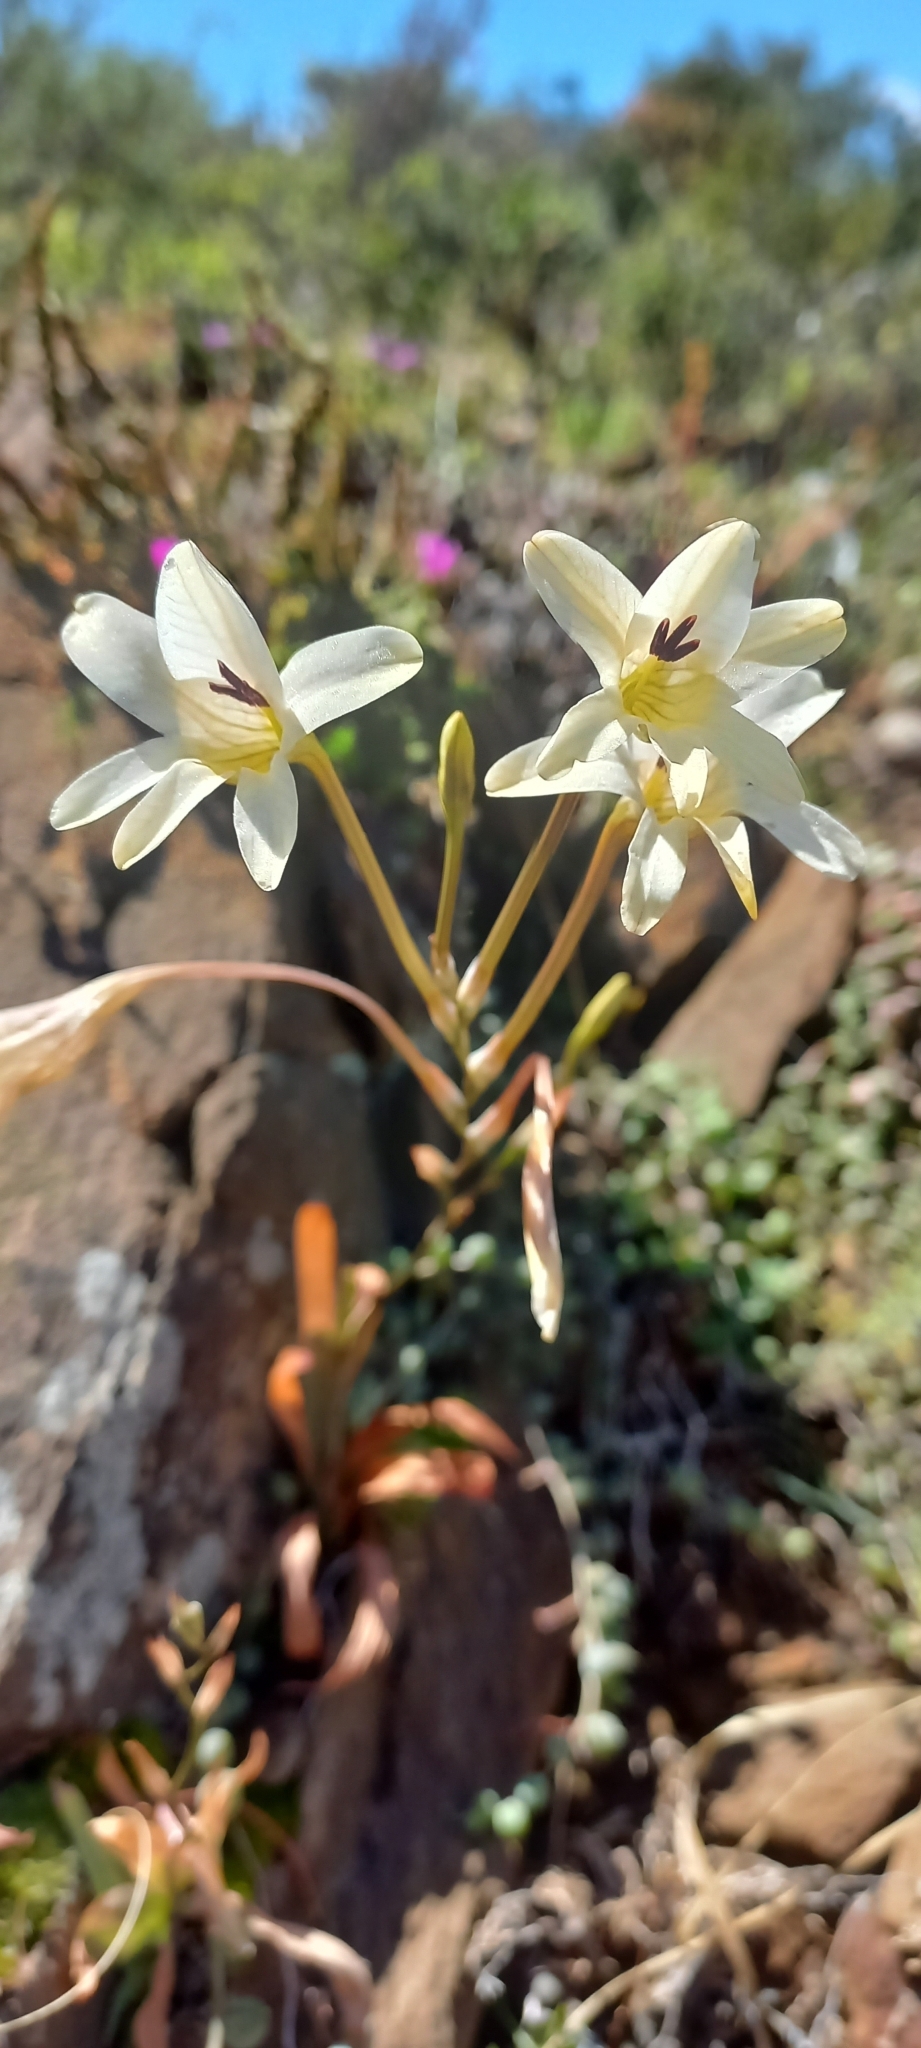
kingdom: Plantae
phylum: Tracheophyta
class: Liliopsida
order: Asparagales
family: Iridaceae
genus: Tritonia
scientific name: Tritonia pallida
